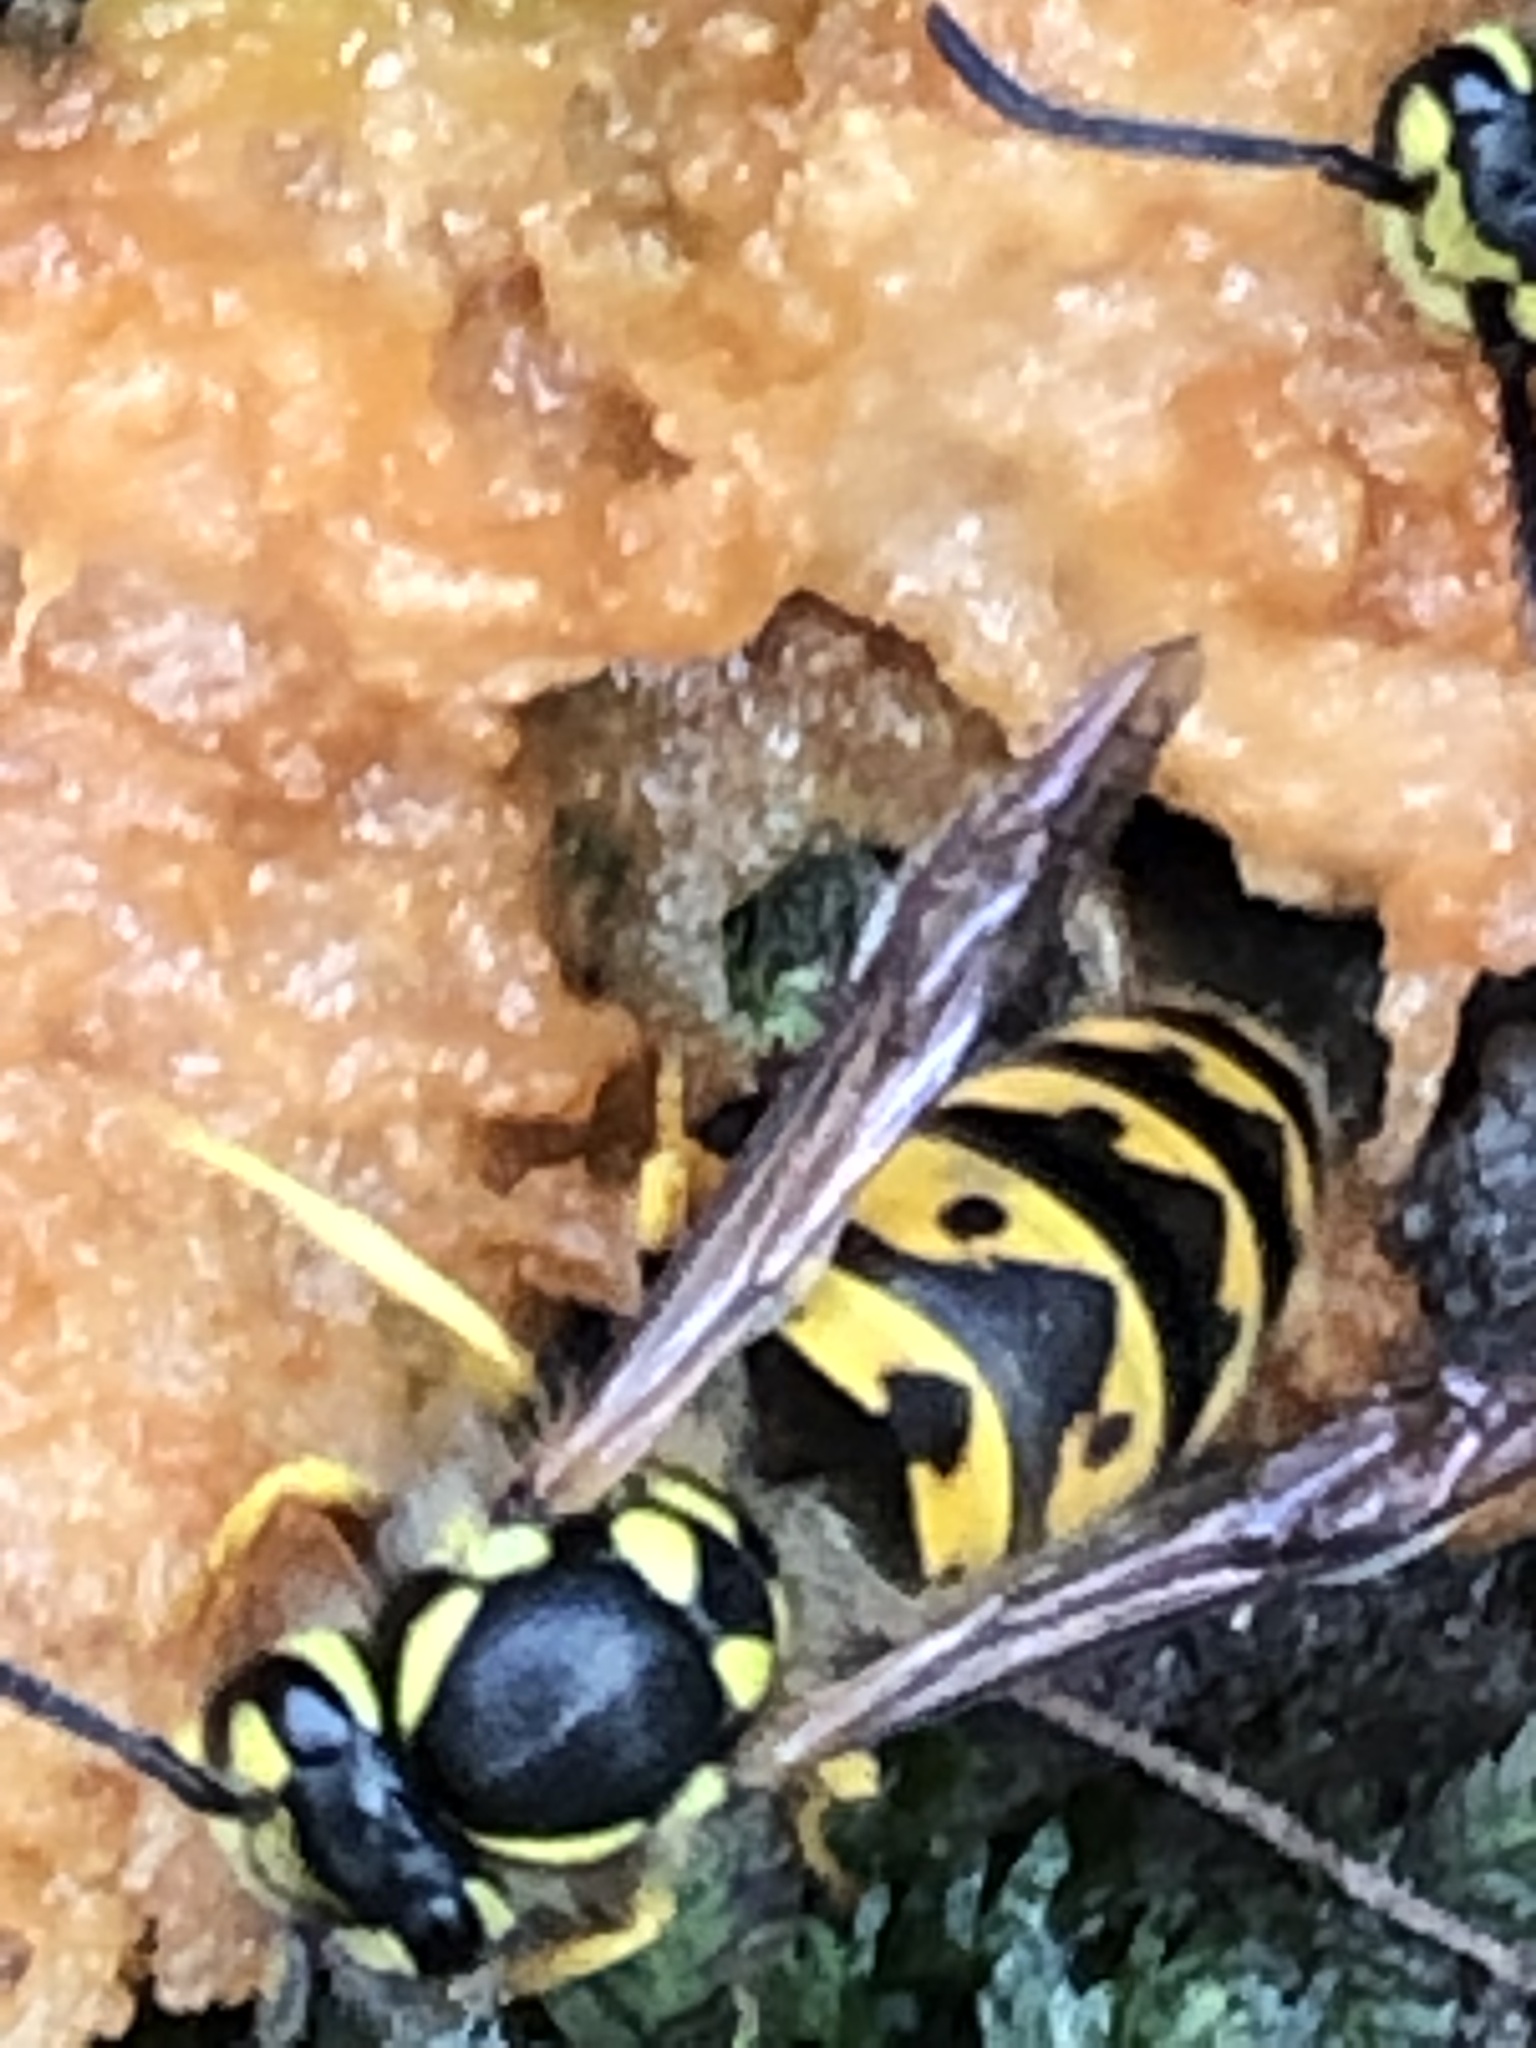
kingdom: Animalia
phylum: Arthropoda
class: Insecta
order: Hymenoptera
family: Vespidae
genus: Vespula
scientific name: Vespula germanica
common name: German wasp
